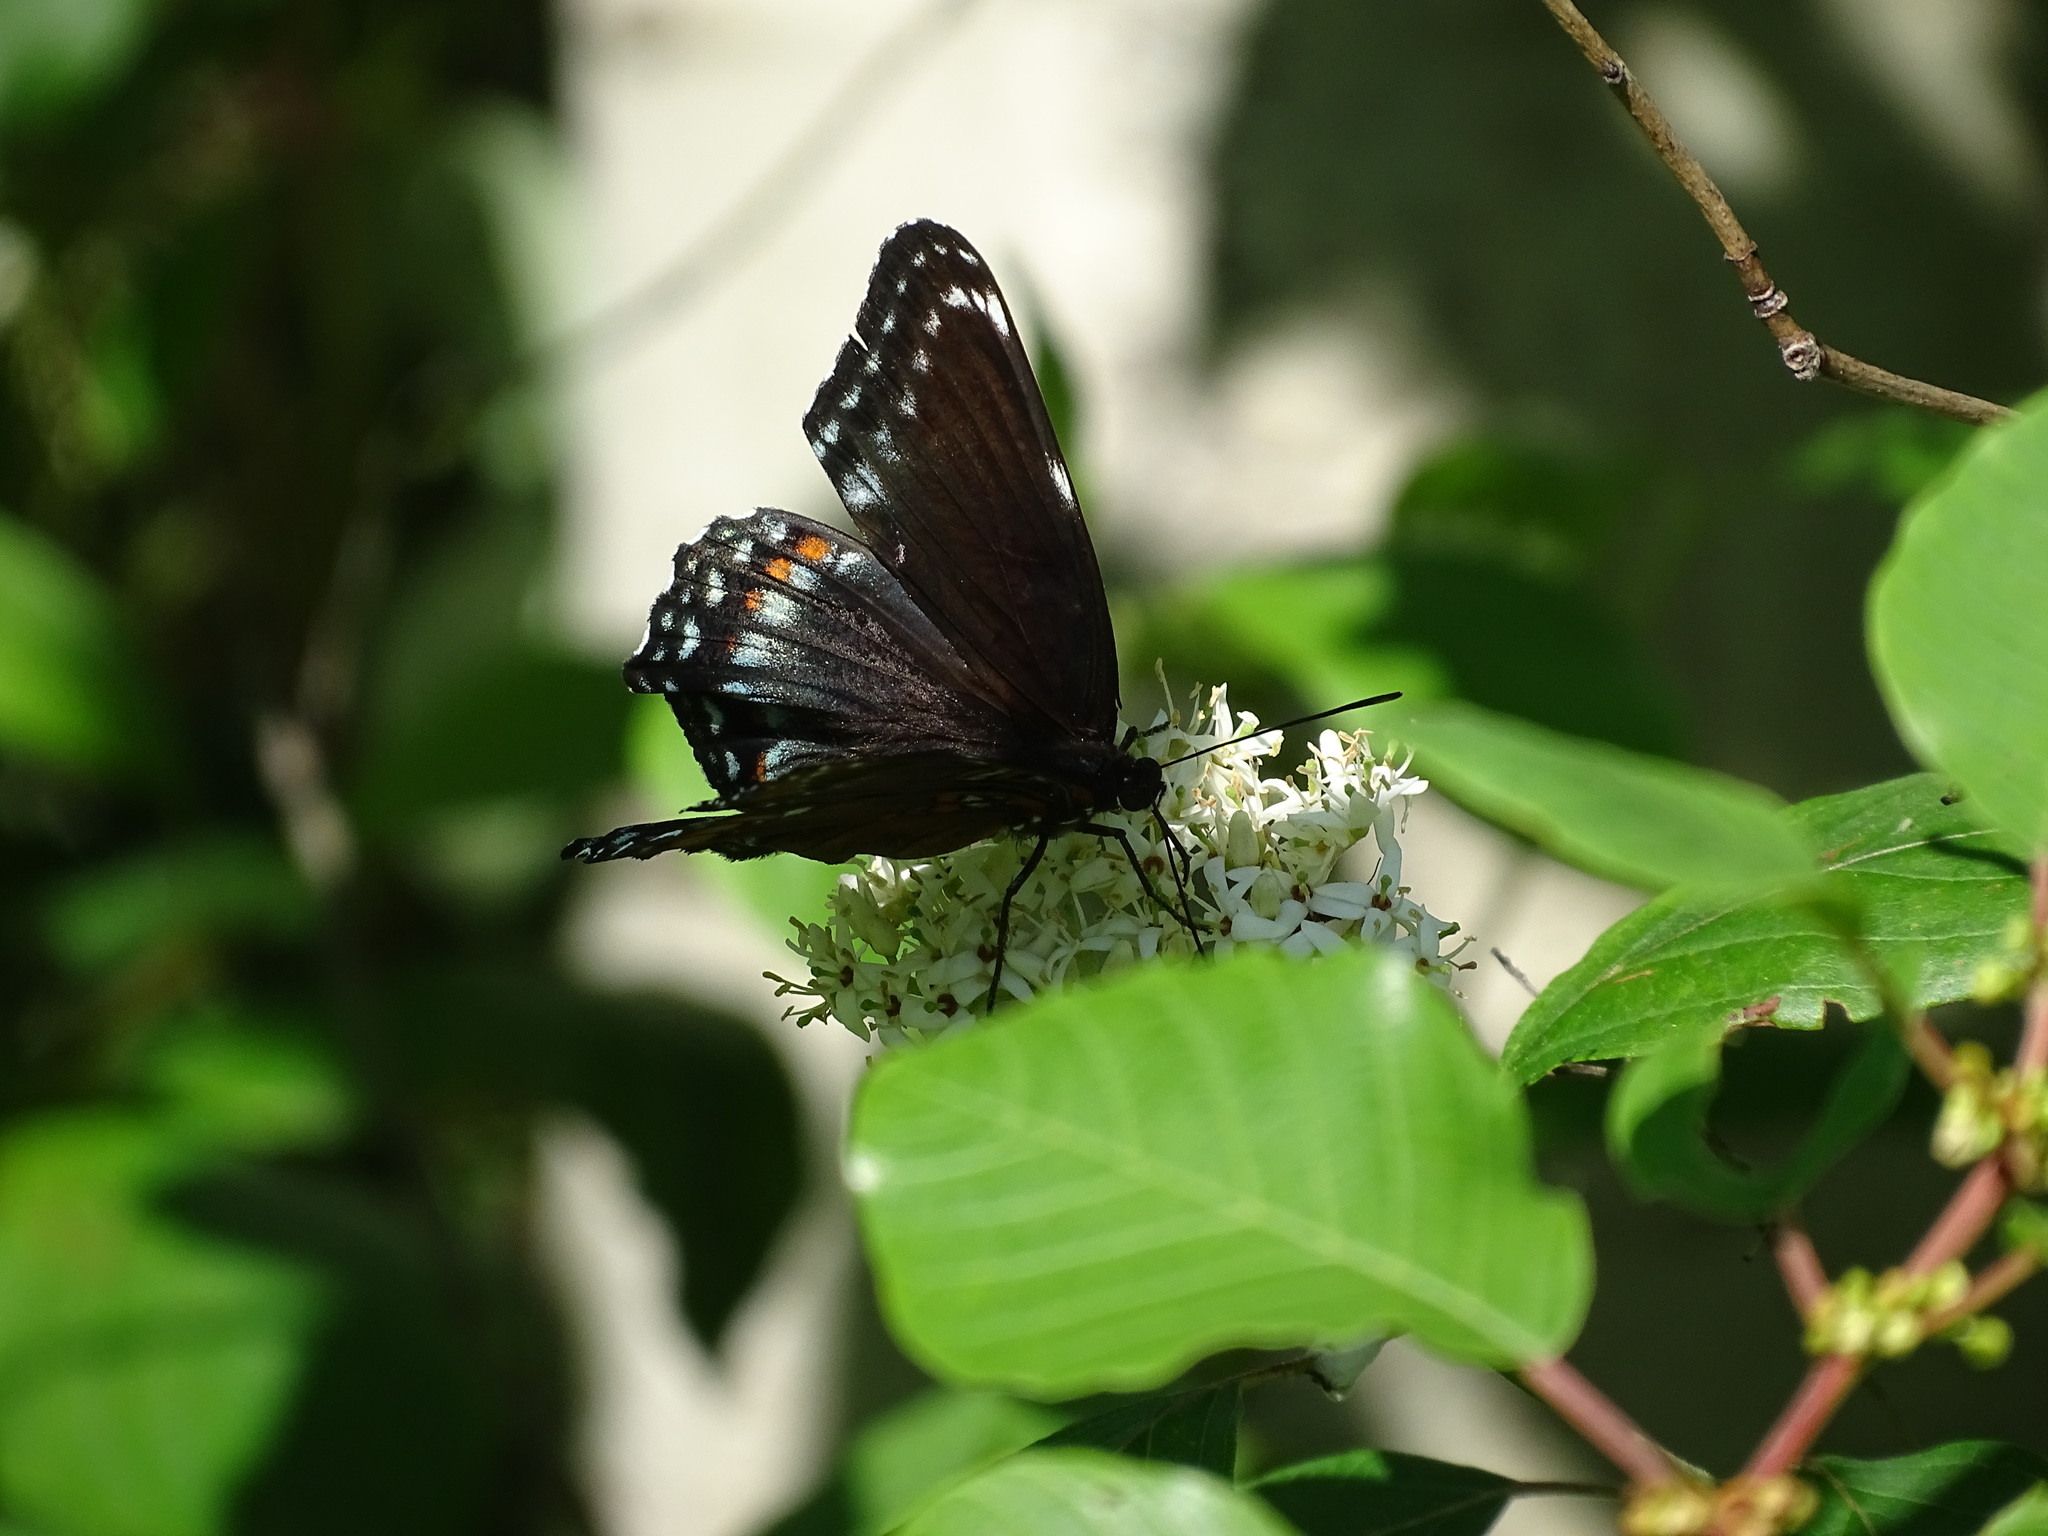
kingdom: Animalia
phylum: Arthropoda
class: Insecta
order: Lepidoptera
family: Nymphalidae
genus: Limenitis
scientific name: Limenitis astyanax
